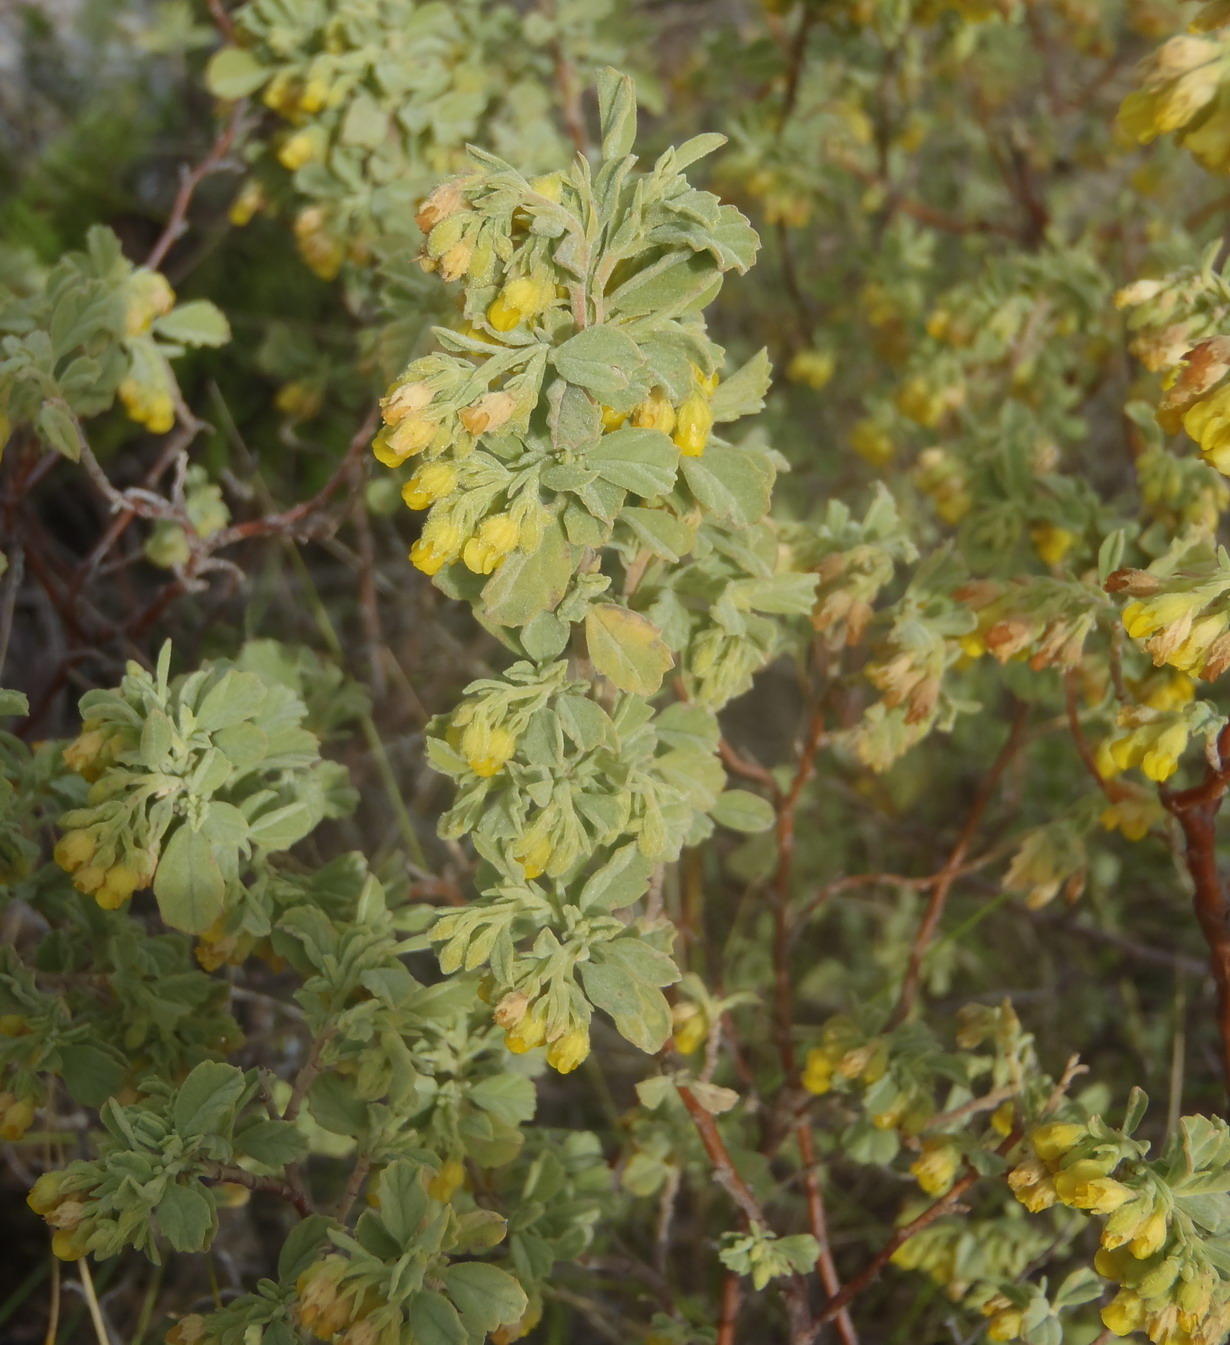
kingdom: Plantae
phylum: Tracheophyta
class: Magnoliopsida
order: Malvales
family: Malvaceae
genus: Hermannia
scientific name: Hermannia holosericea
